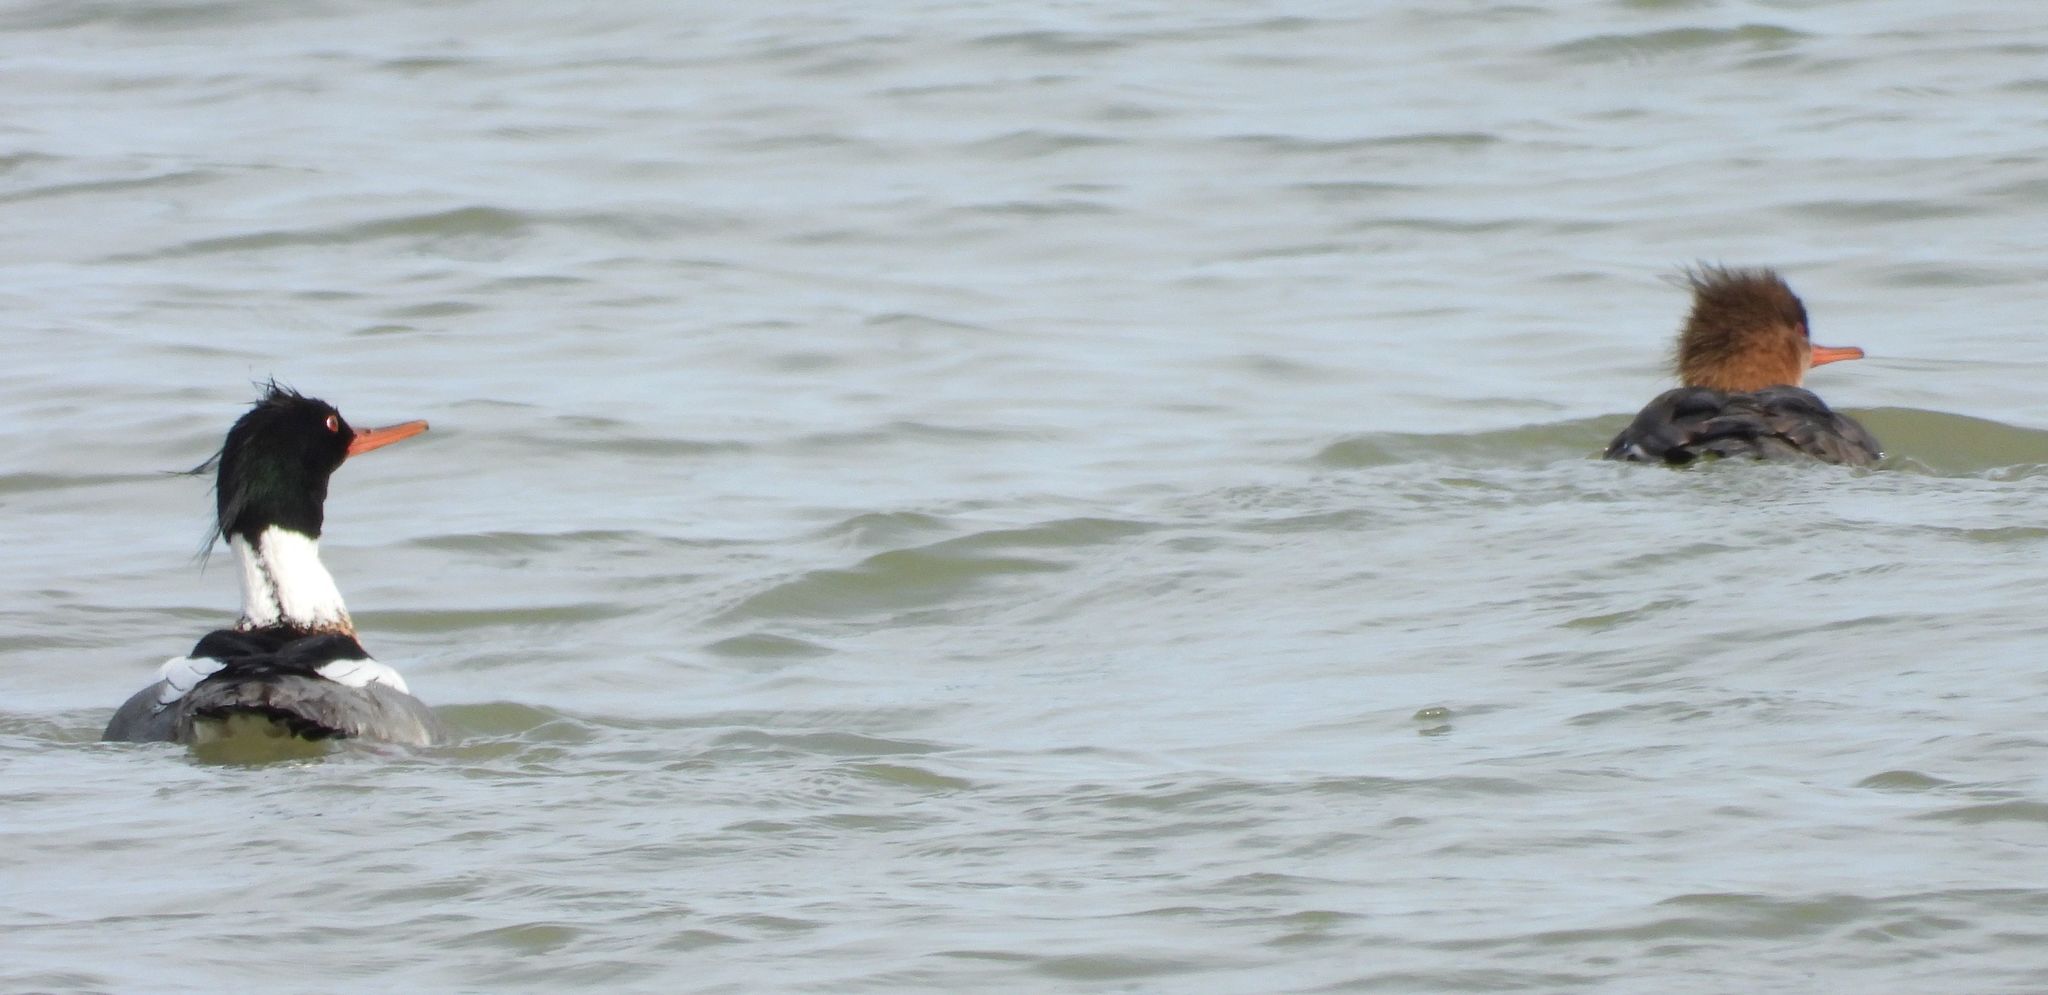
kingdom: Animalia
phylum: Chordata
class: Aves
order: Anseriformes
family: Anatidae
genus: Mergus
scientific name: Mergus serrator
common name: Red-breasted merganser
